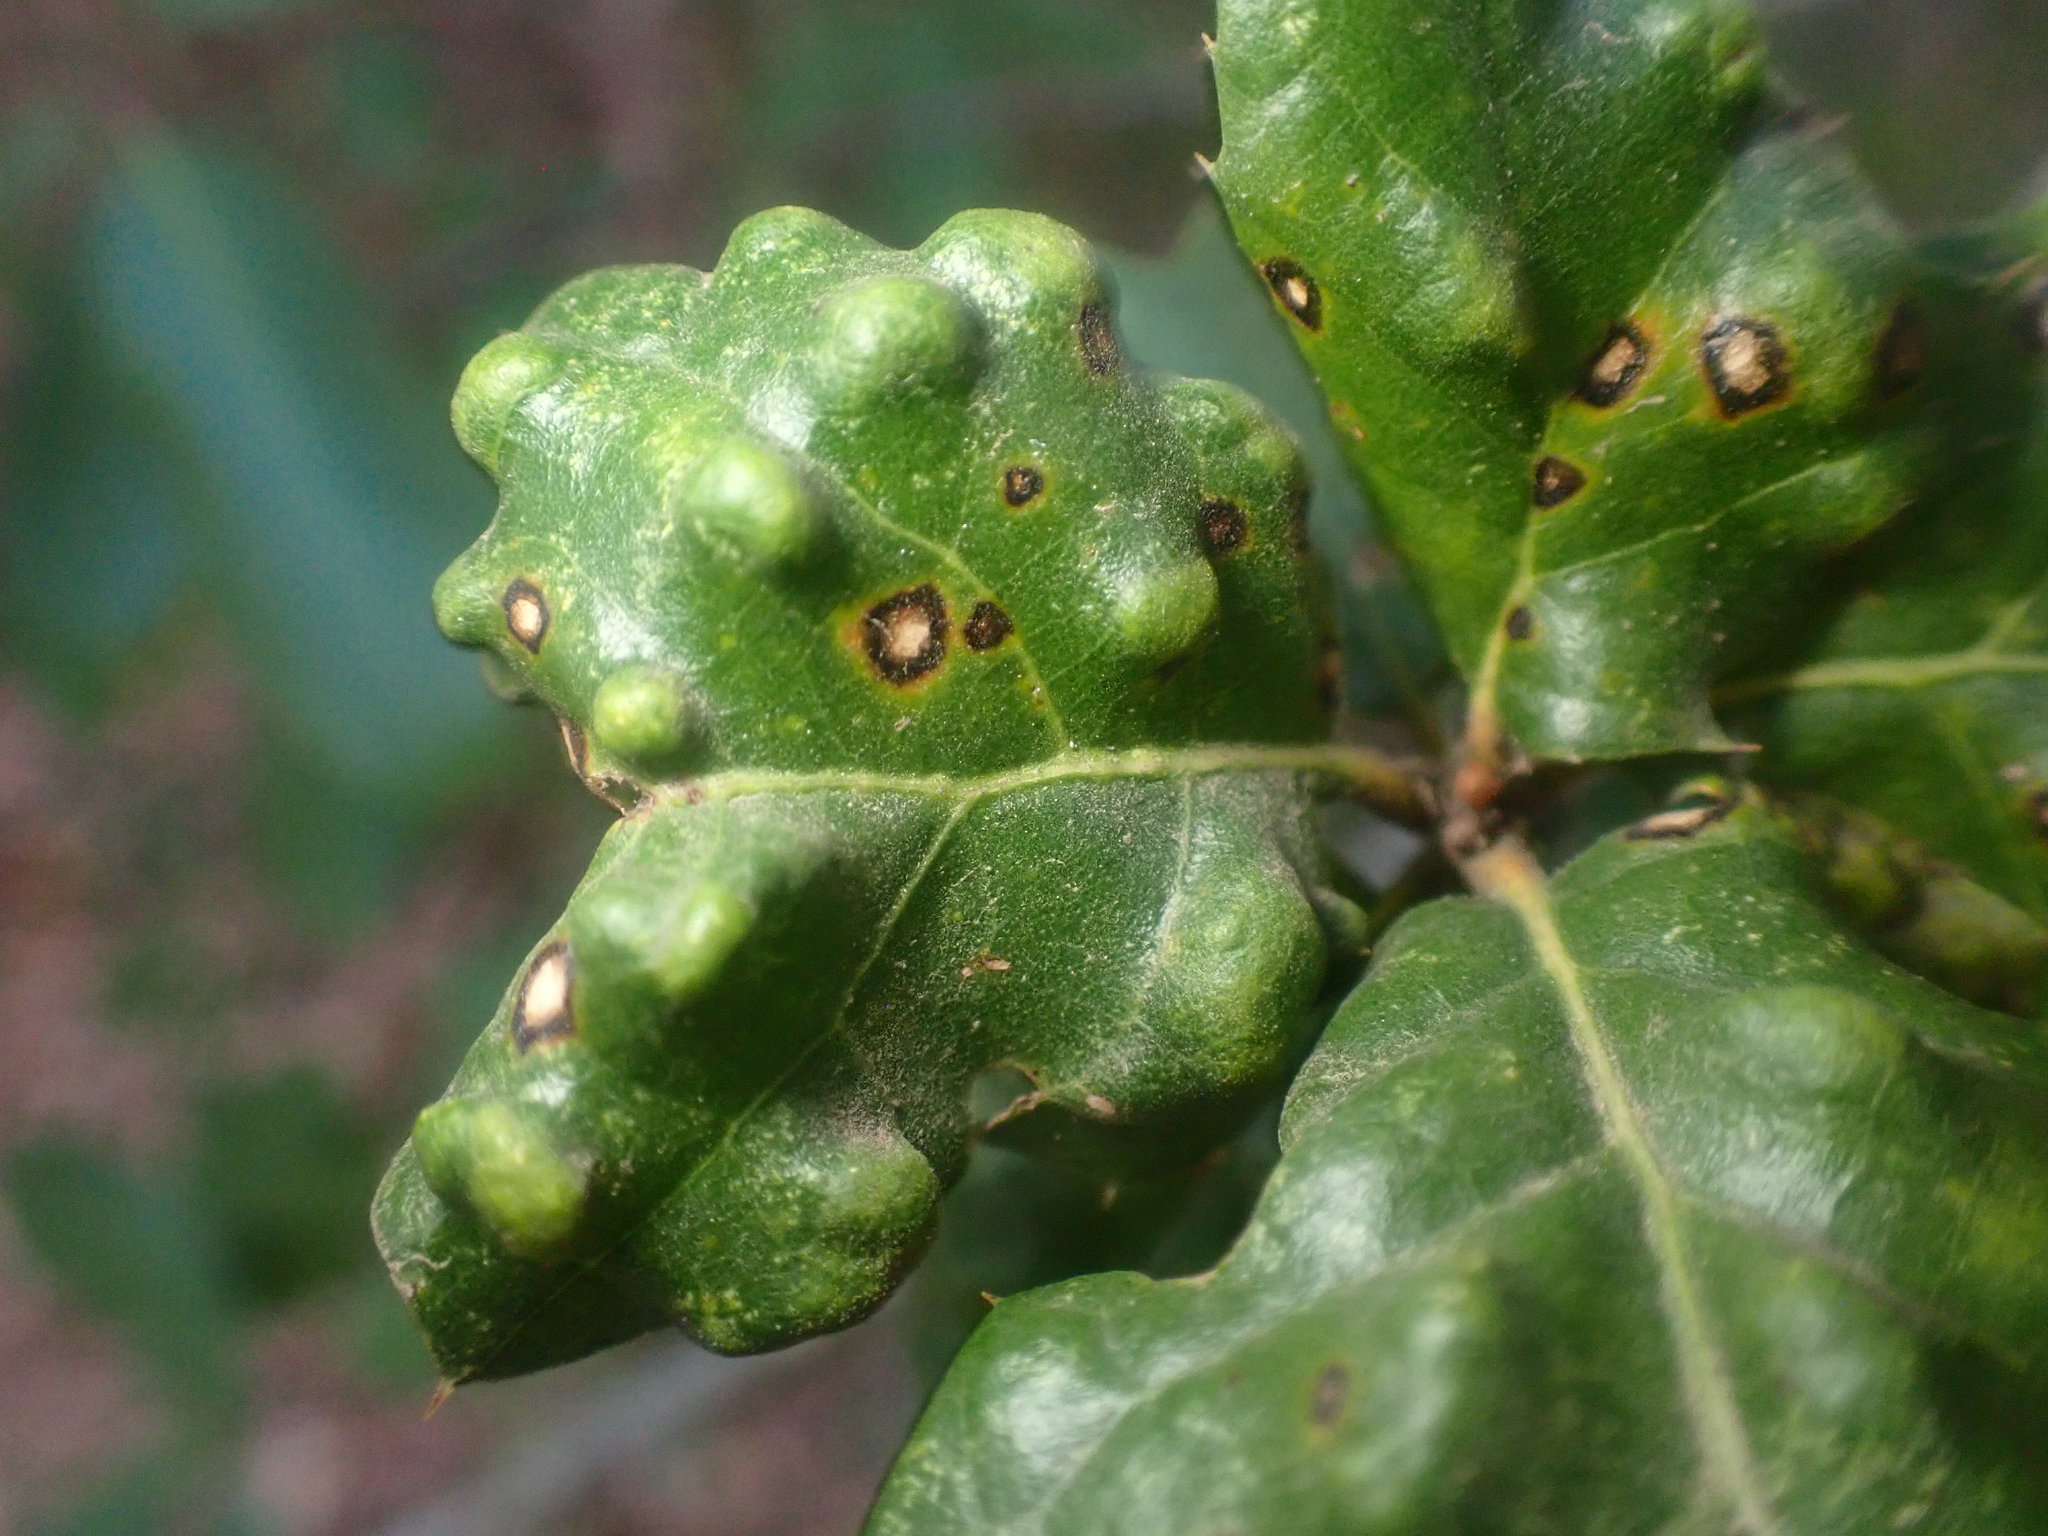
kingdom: Animalia
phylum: Arthropoda
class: Arachnida
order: Trombidiformes
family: Eriophyidae
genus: Aceria
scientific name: Aceria
